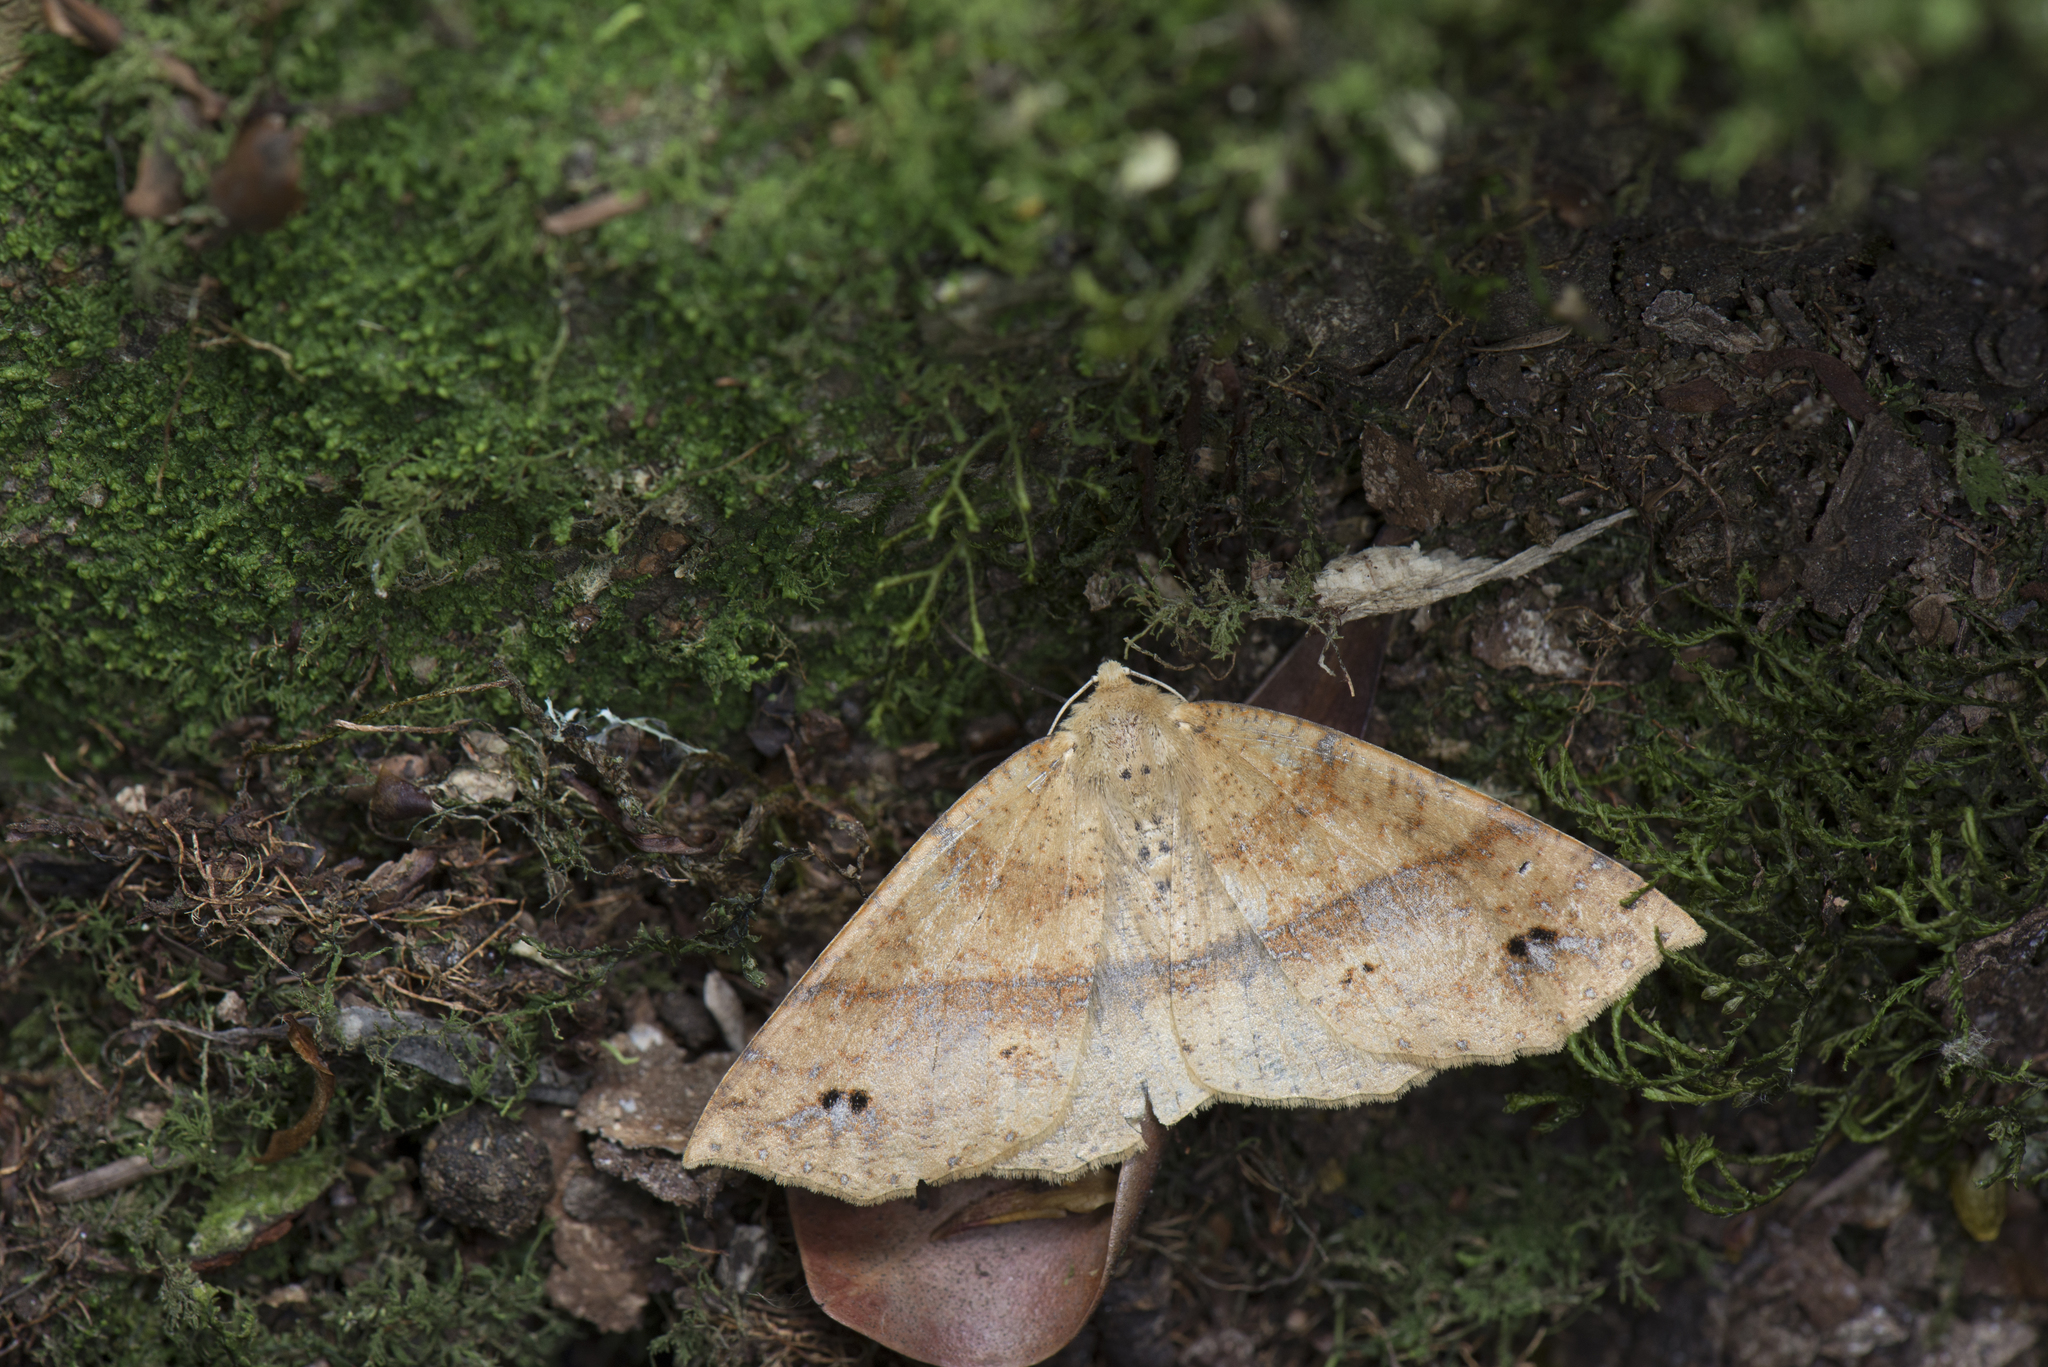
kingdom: Animalia
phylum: Arthropoda
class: Insecta
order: Lepidoptera
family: Geometridae
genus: Psyra
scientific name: Psyra spurcataria
